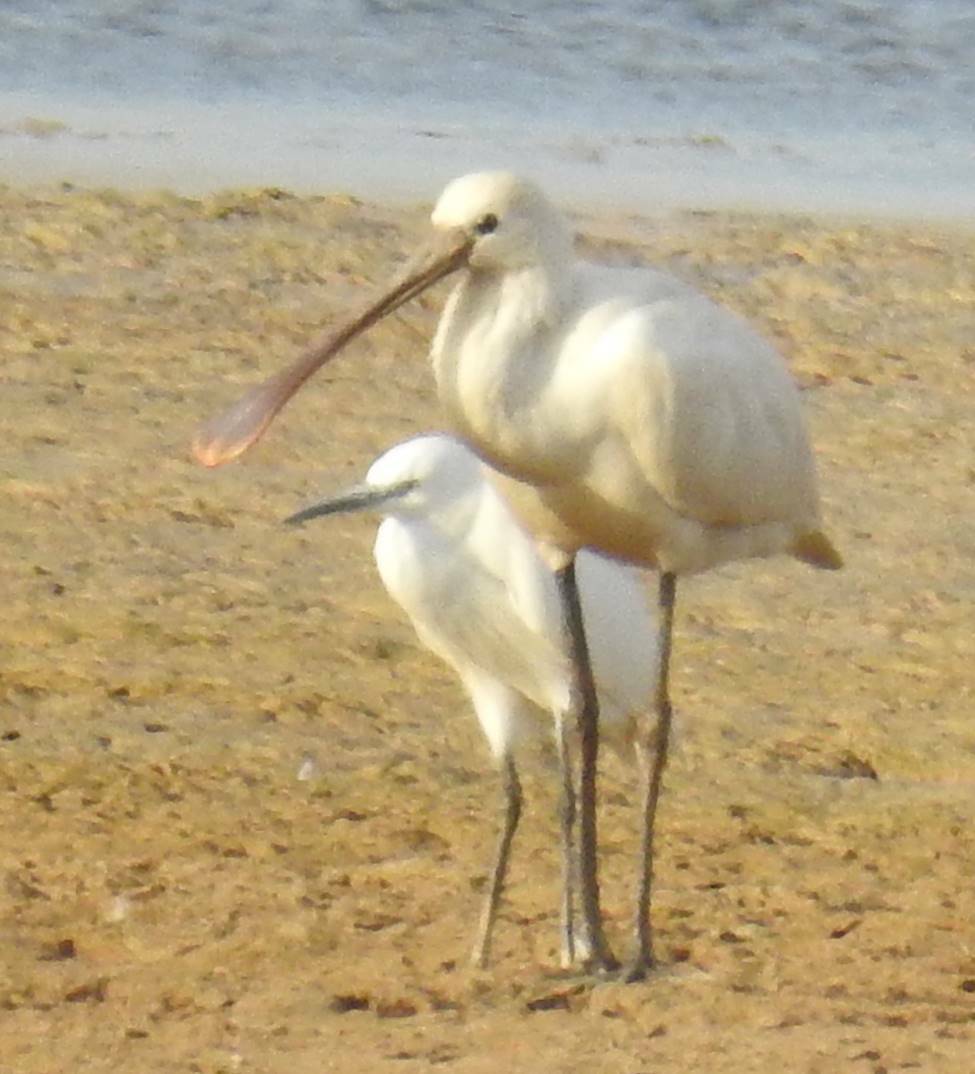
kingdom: Animalia
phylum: Chordata
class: Aves
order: Pelecaniformes
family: Threskiornithidae
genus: Platalea
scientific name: Platalea leucorodia
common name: Eurasian spoonbill
